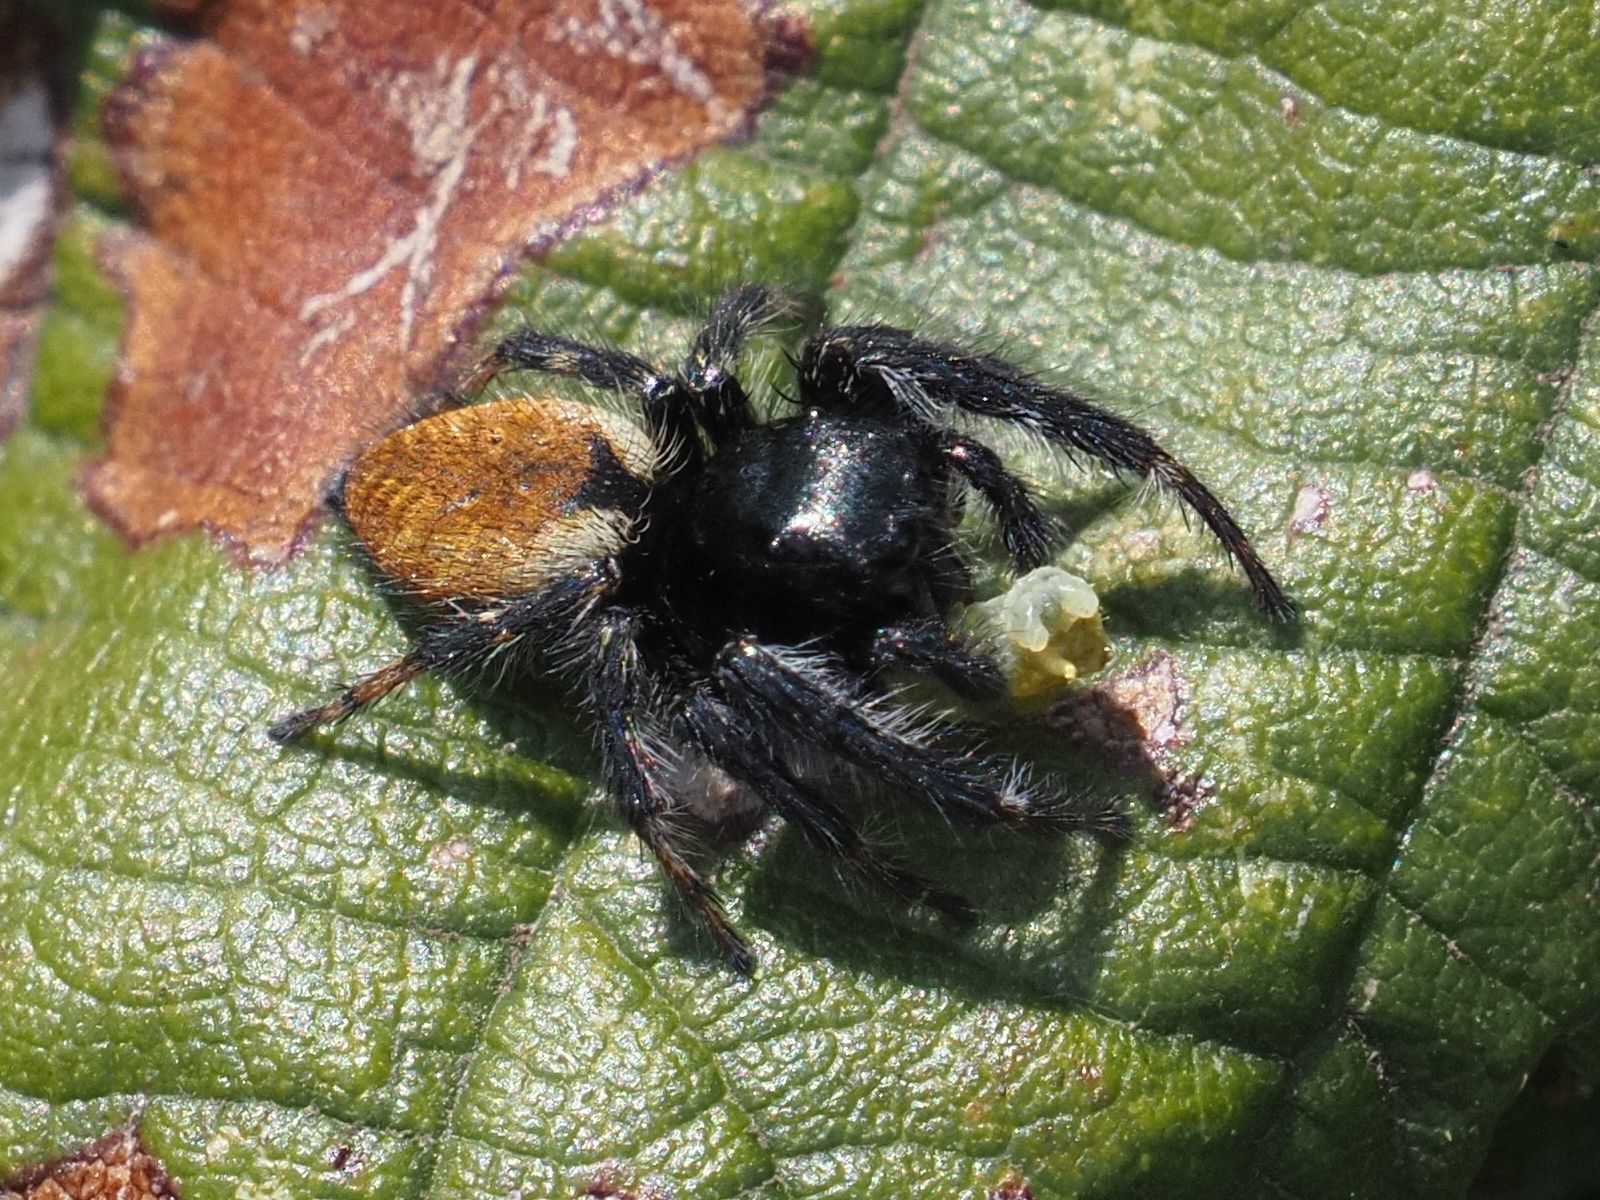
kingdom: Animalia
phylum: Arthropoda
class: Arachnida
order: Araneae
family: Salticidae
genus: Carrhotus
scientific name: Carrhotus xanthogramma
